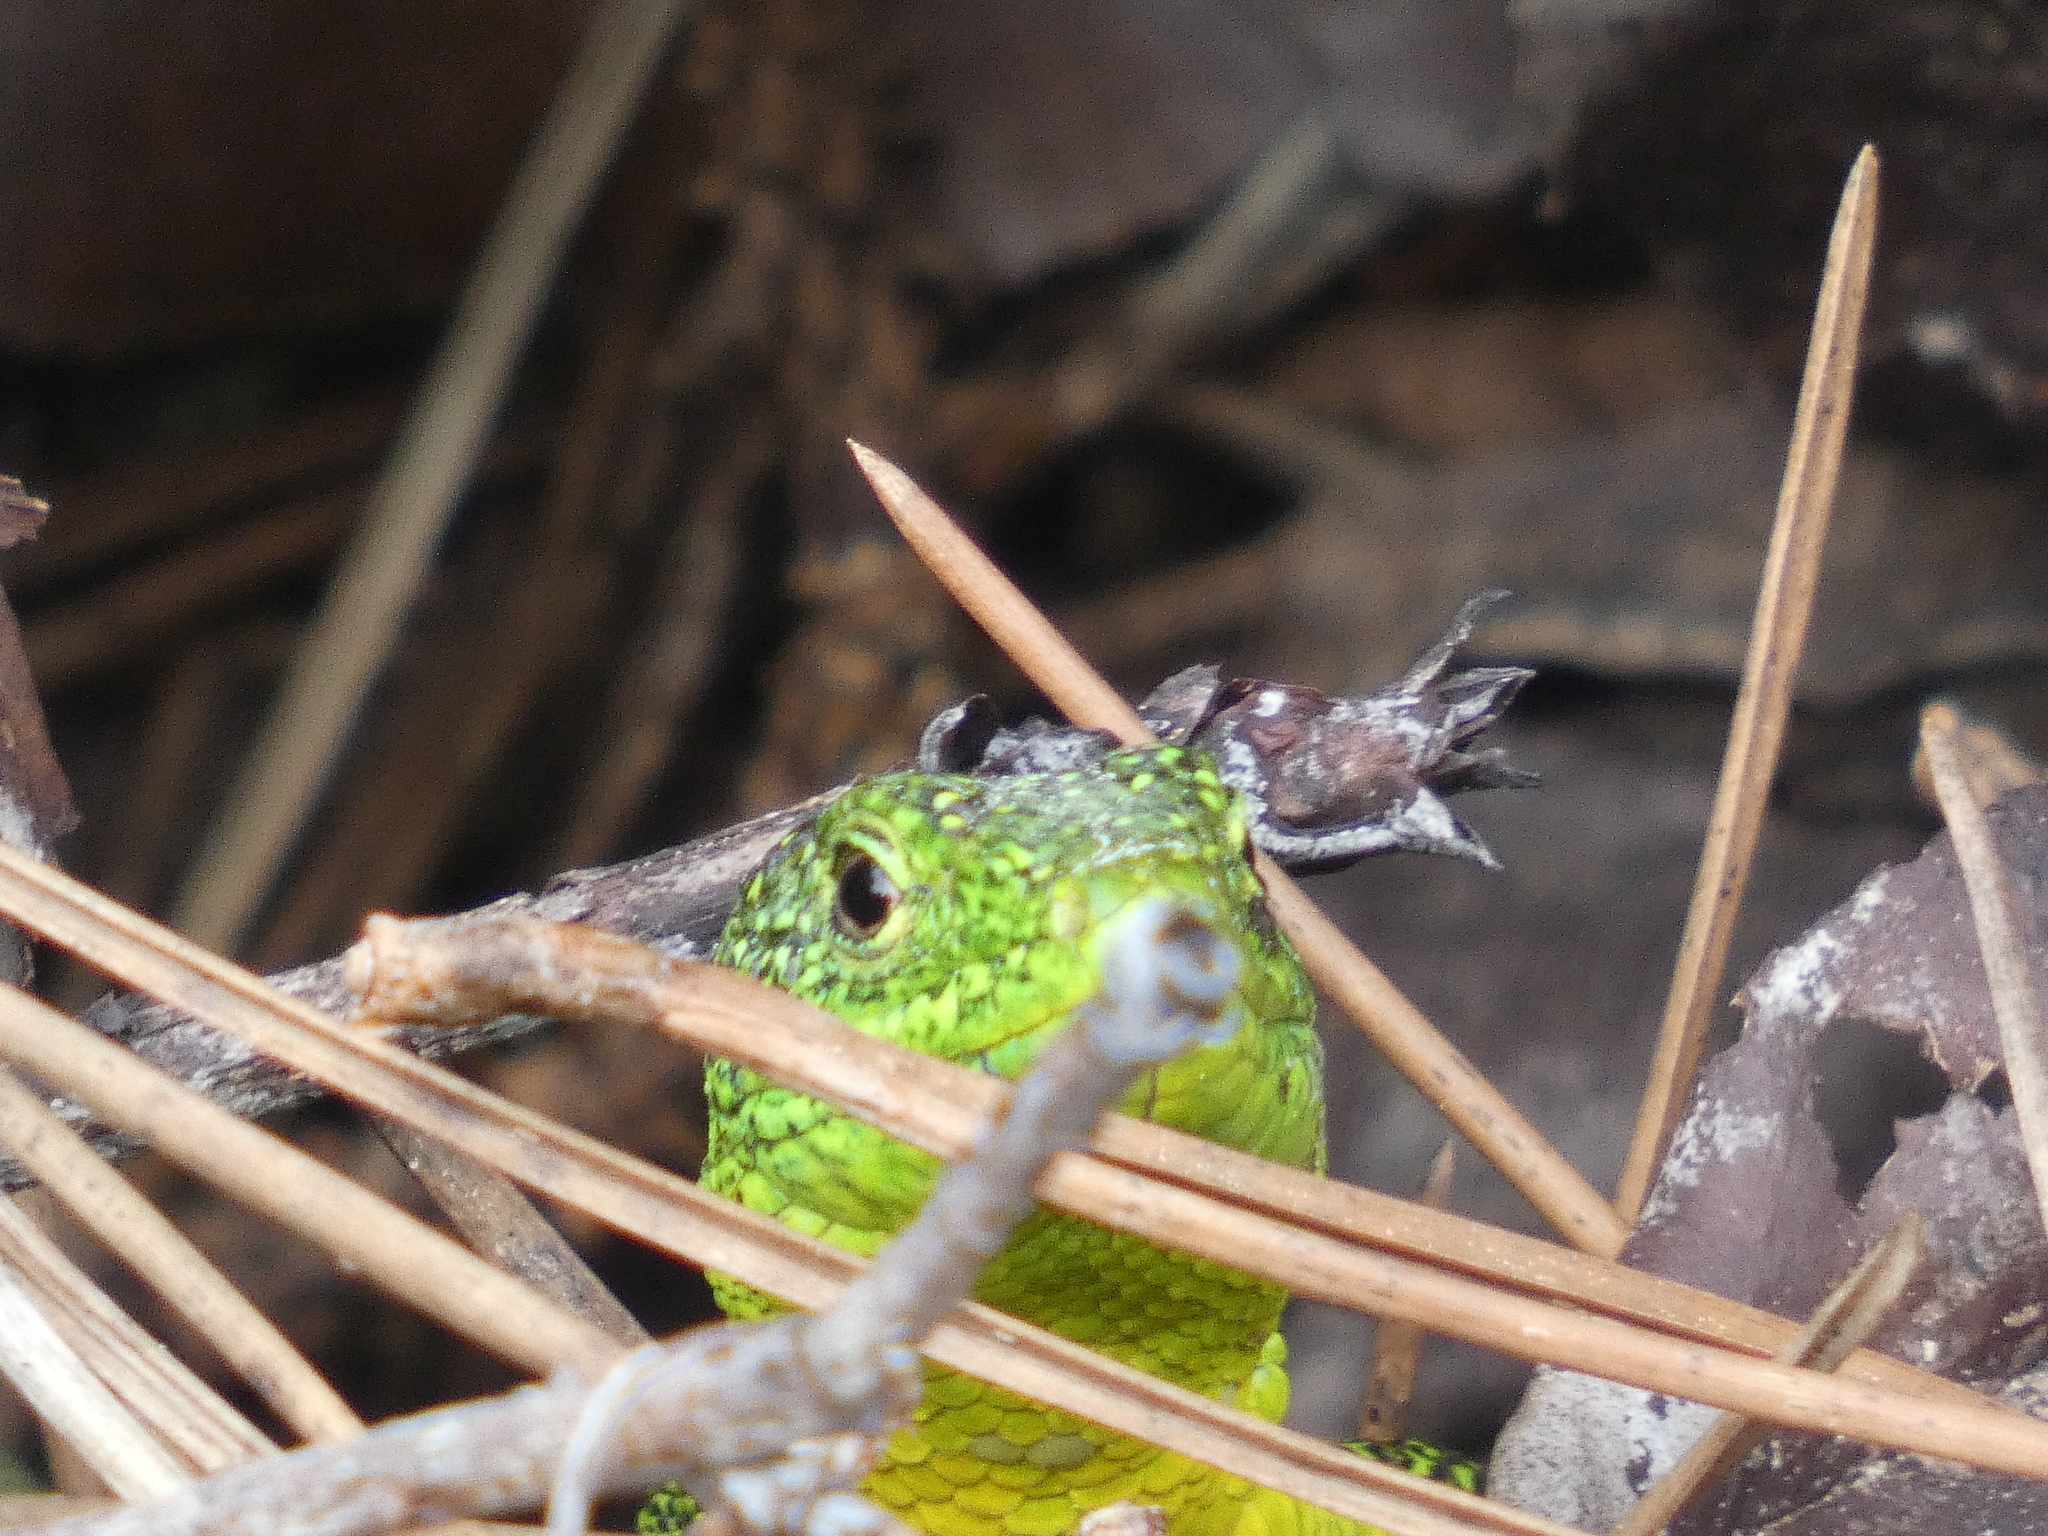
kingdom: Animalia
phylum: Chordata
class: Squamata
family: Lacertidae
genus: Lacerta
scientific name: Lacerta bilineata
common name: Western green lizard
